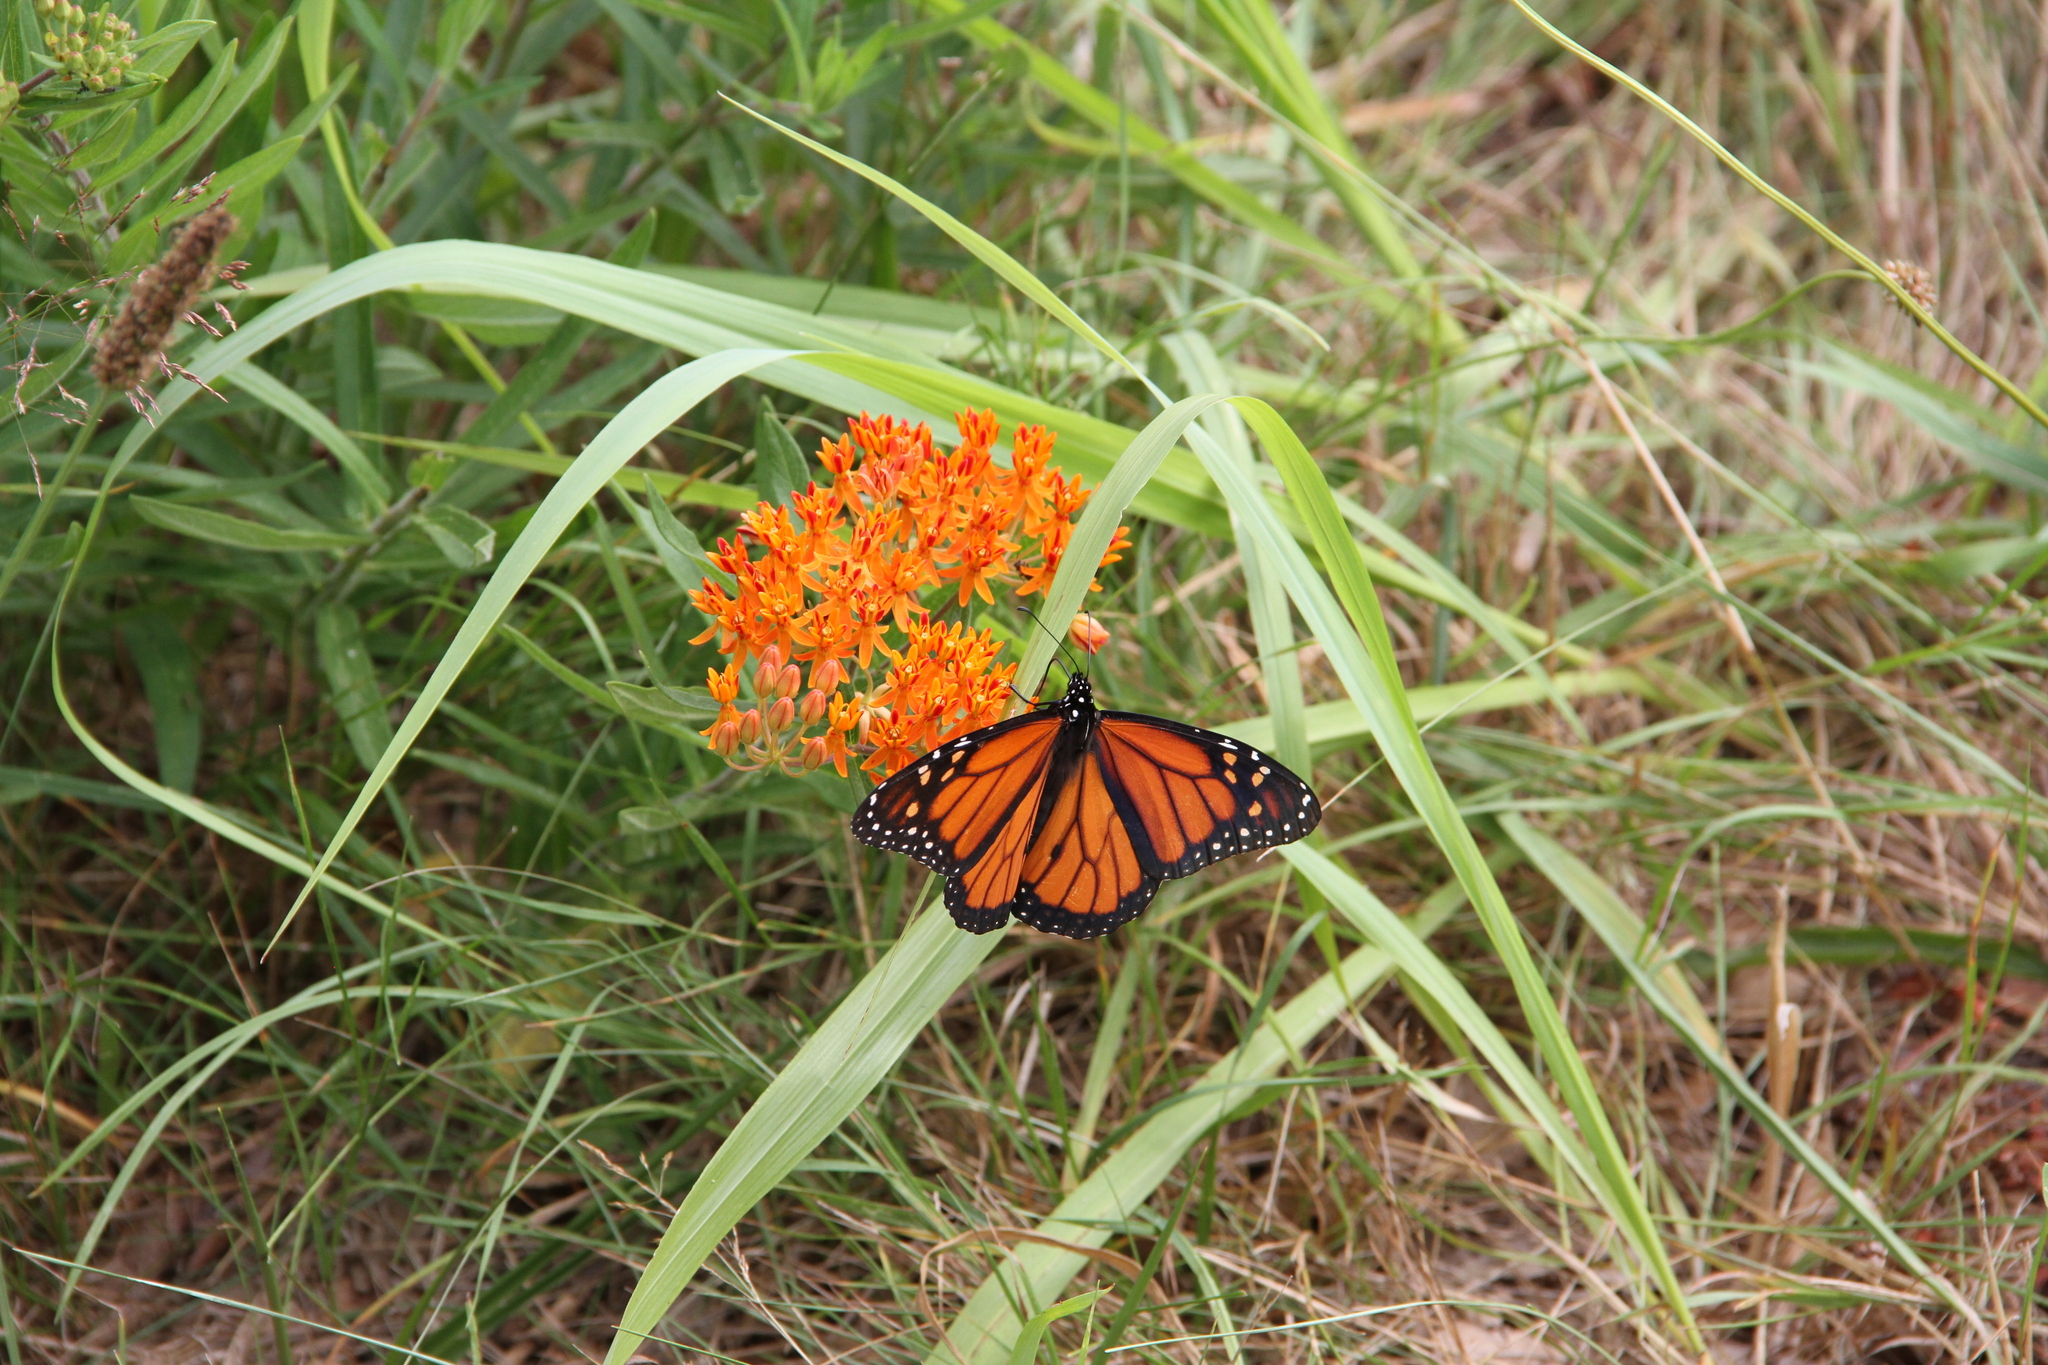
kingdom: Animalia
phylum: Arthropoda
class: Insecta
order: Lepidoptera
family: Nymphalidae
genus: Danaus
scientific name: Danaus plexippus
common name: Monarch
